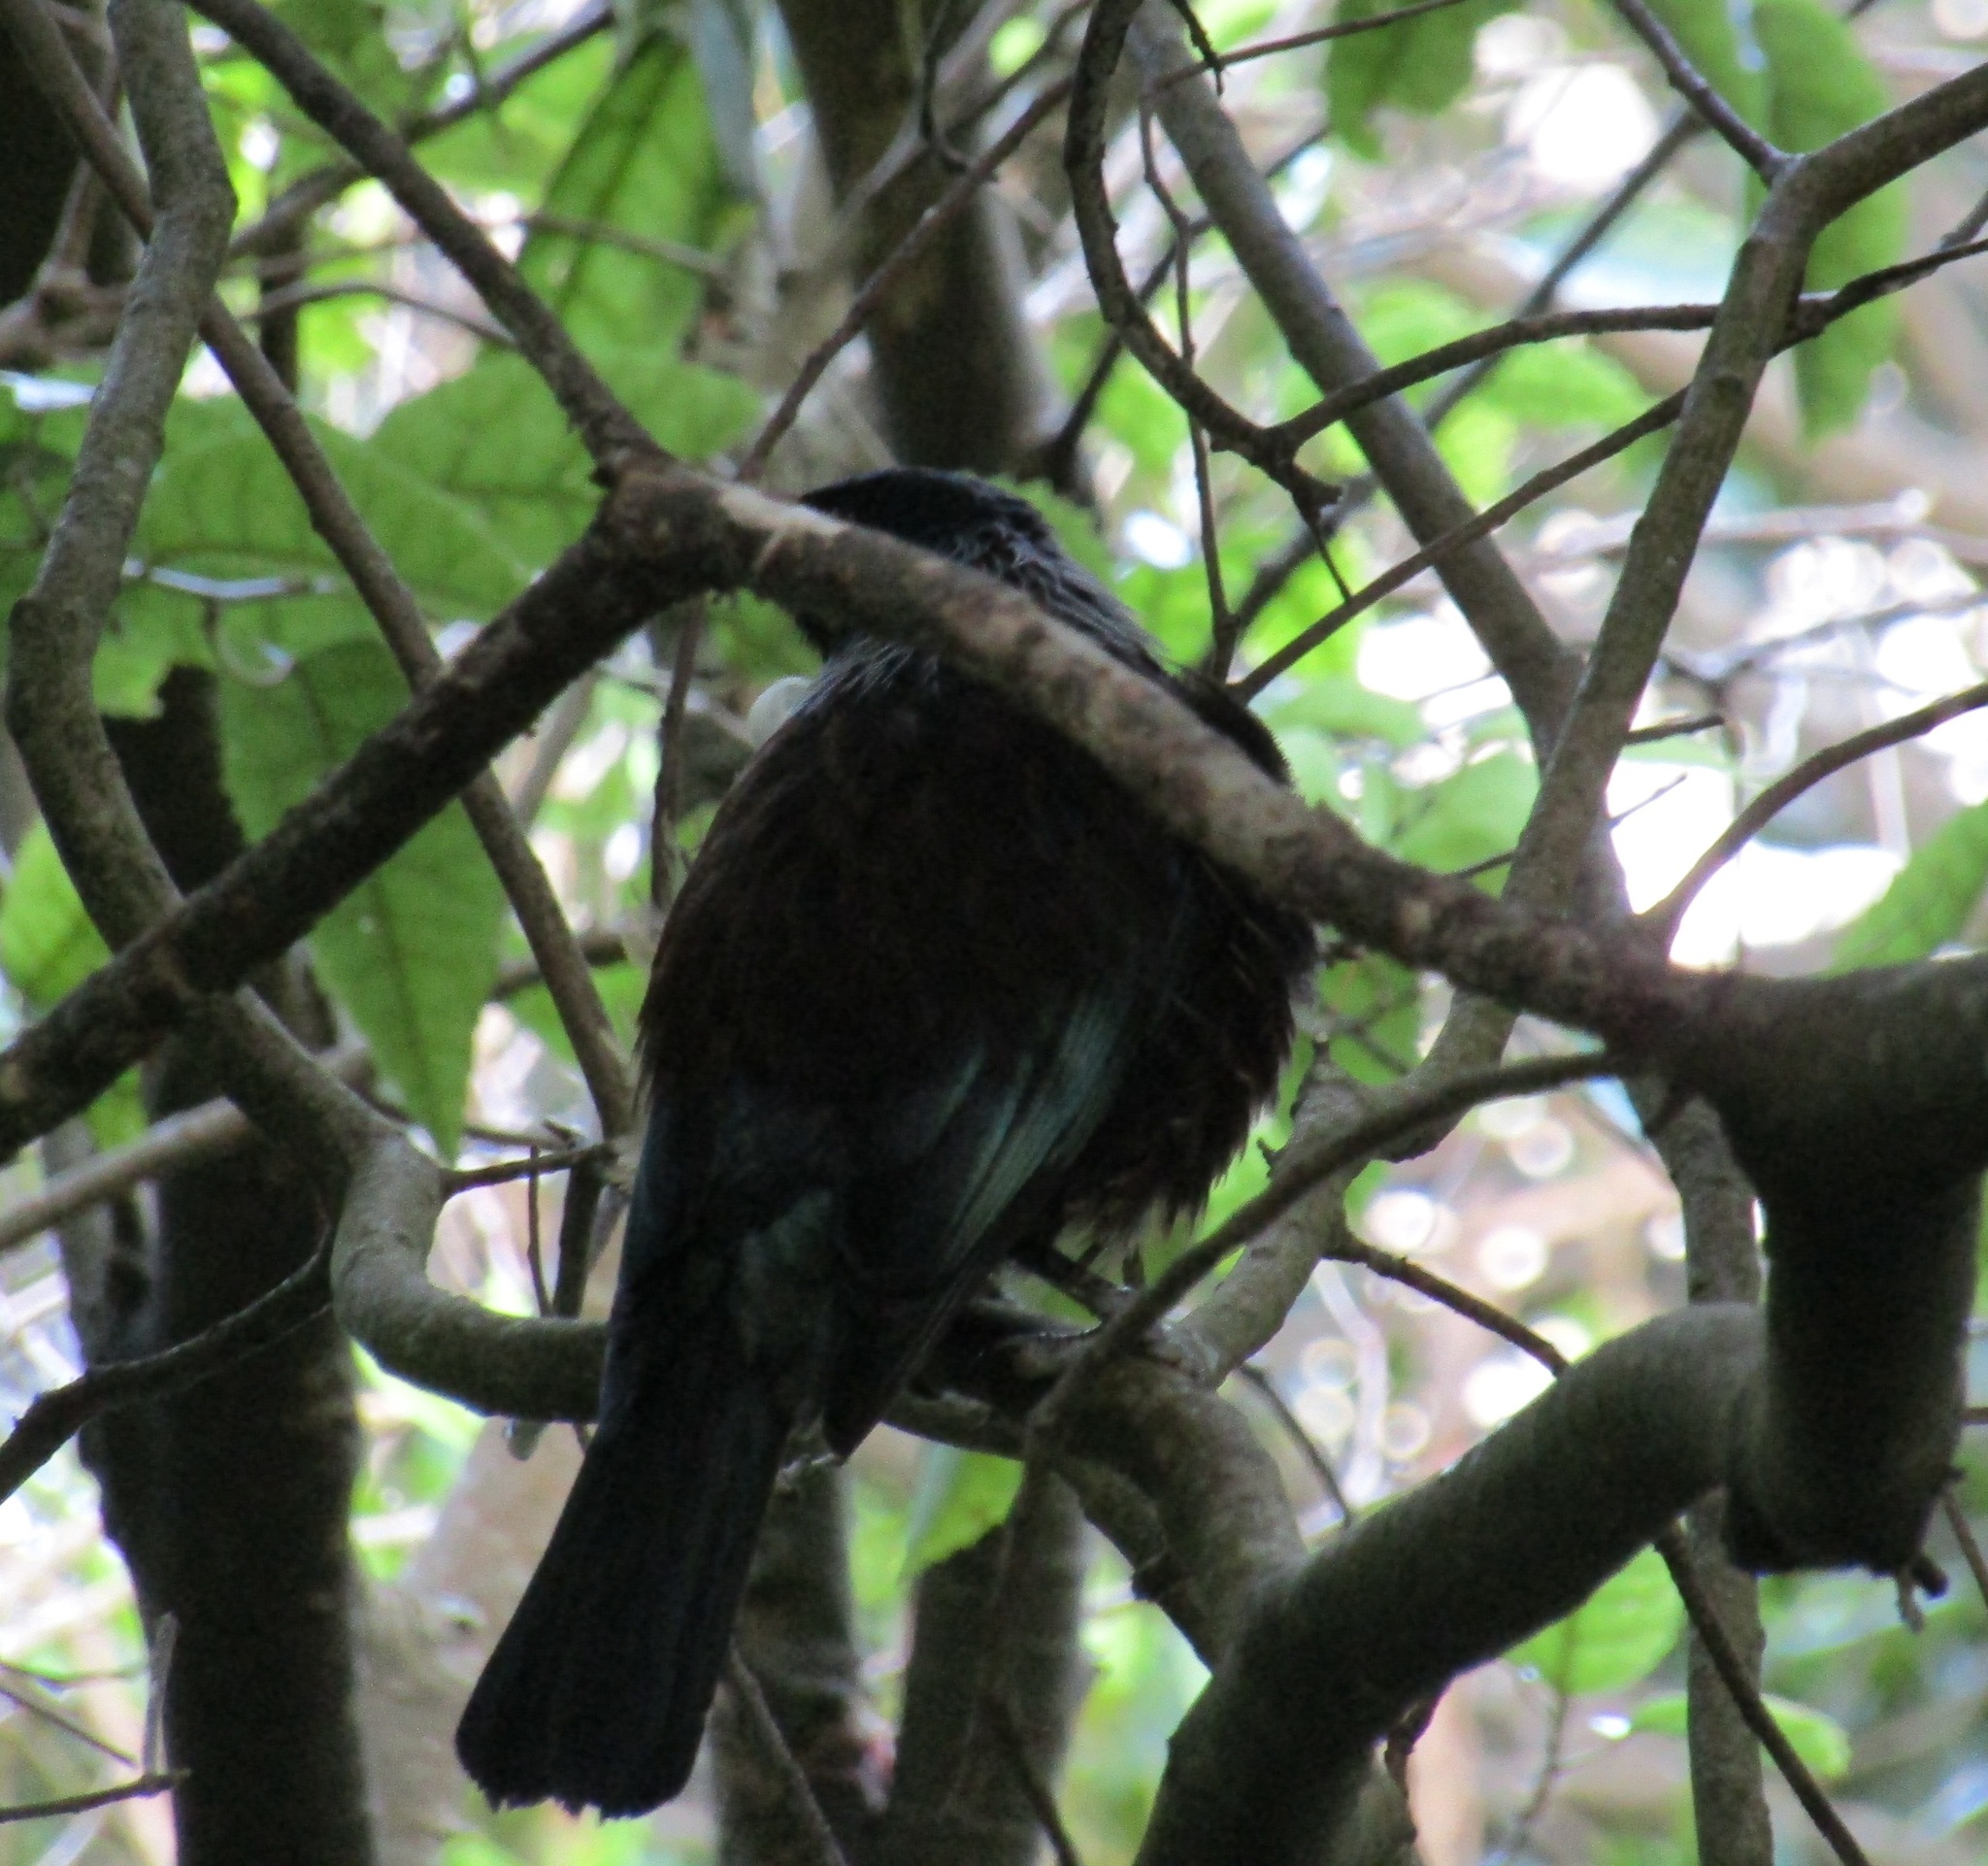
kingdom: Animalia
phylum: Chordata
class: Aves
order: Passeriformes
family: Meliphagidae
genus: Prosthemadera
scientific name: Prosthemadera novaeseelandiae
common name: Tui
